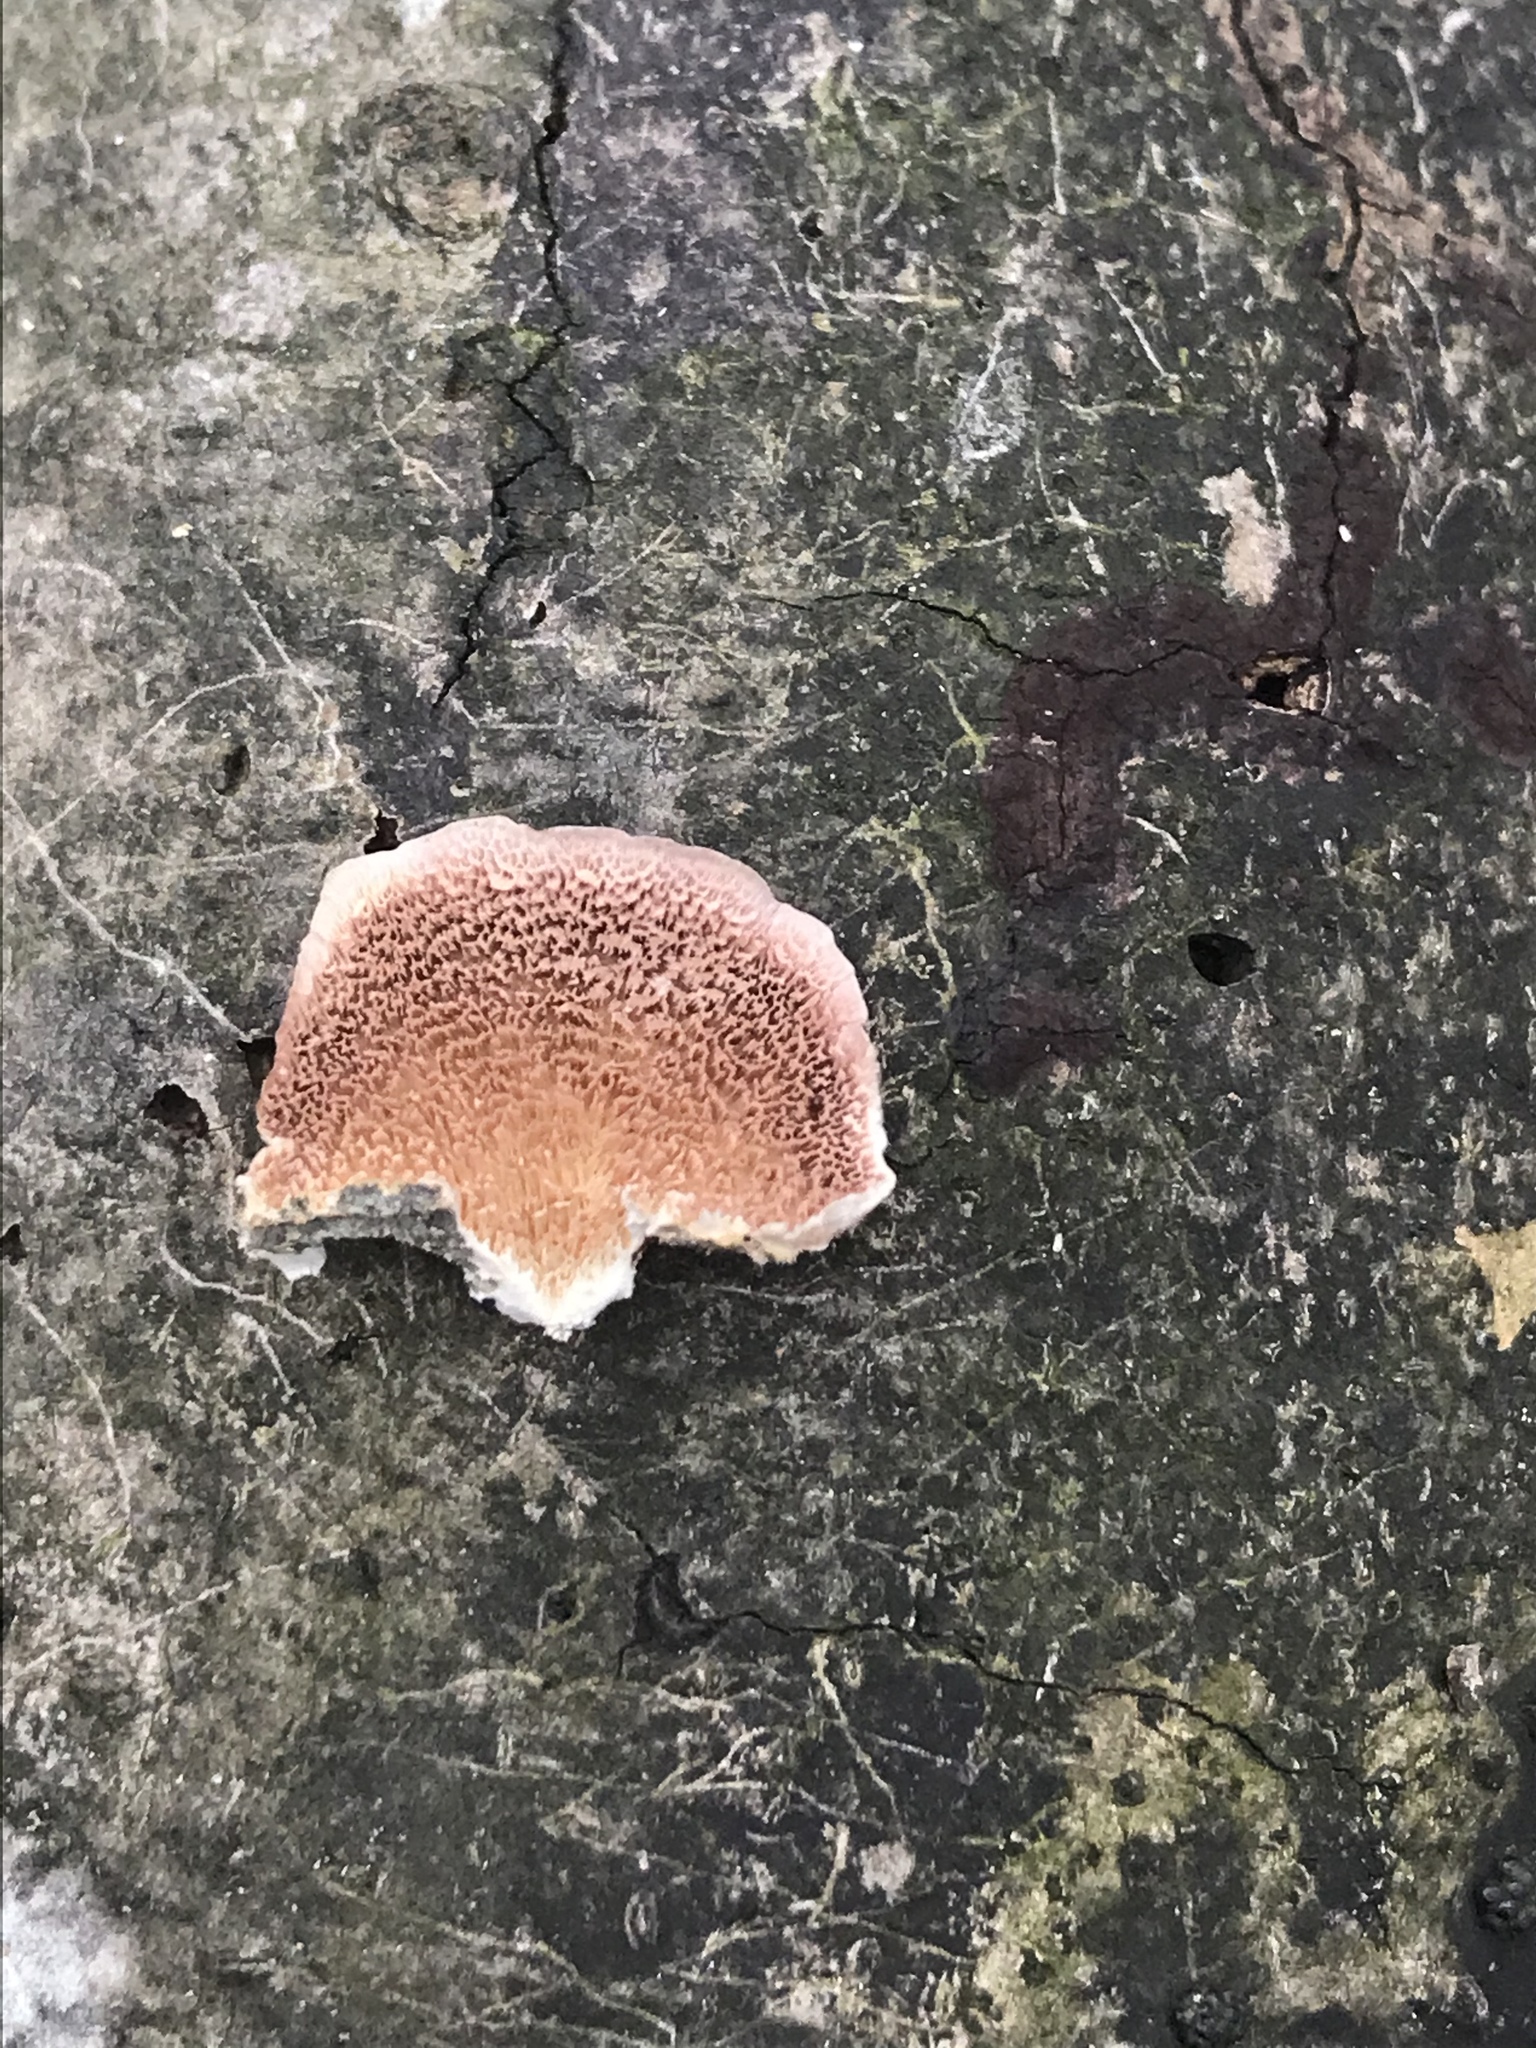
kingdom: Fungi
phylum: Basidiomycota
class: Agaricomycetes
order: Hymenochaetales
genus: Trichaptum
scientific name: Trichaptum biforme
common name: Violet-toothed polypore
